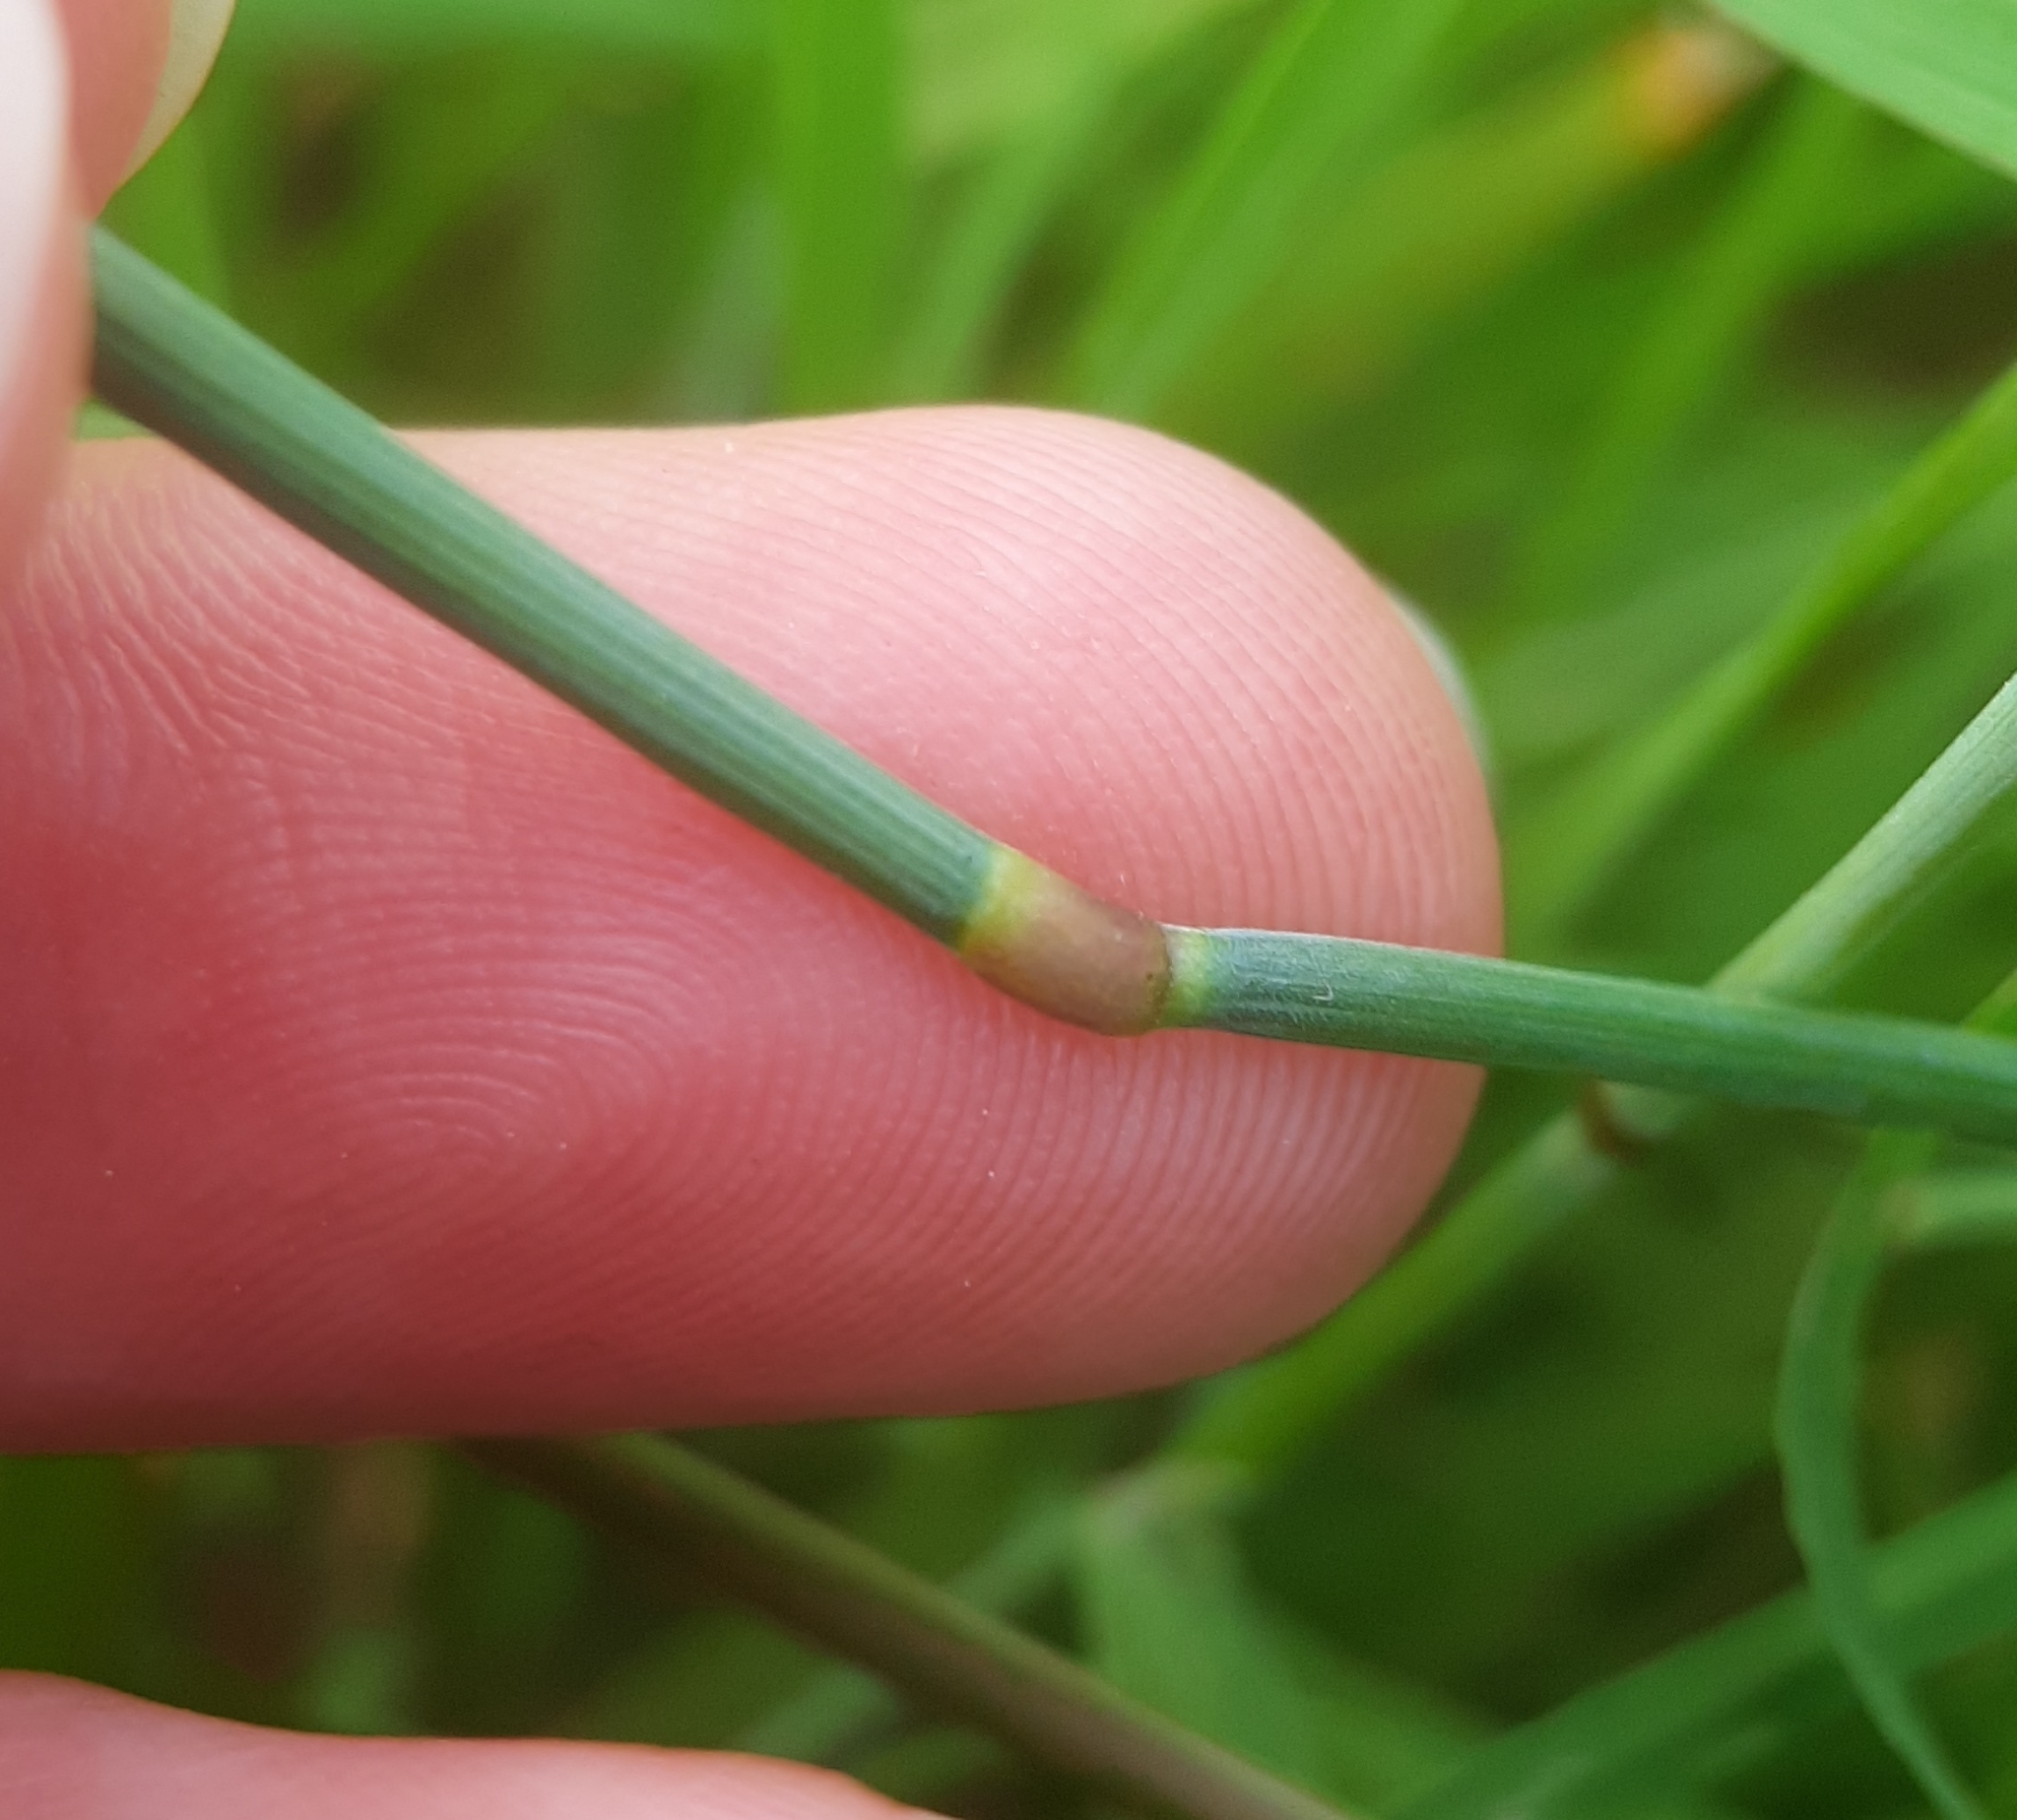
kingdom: Plantae
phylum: Tracheophyta
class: Liliopsida
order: Poales
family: Poaceae
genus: Alopecurus
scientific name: Alopecurus pratensis
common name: Meadow foxtail
